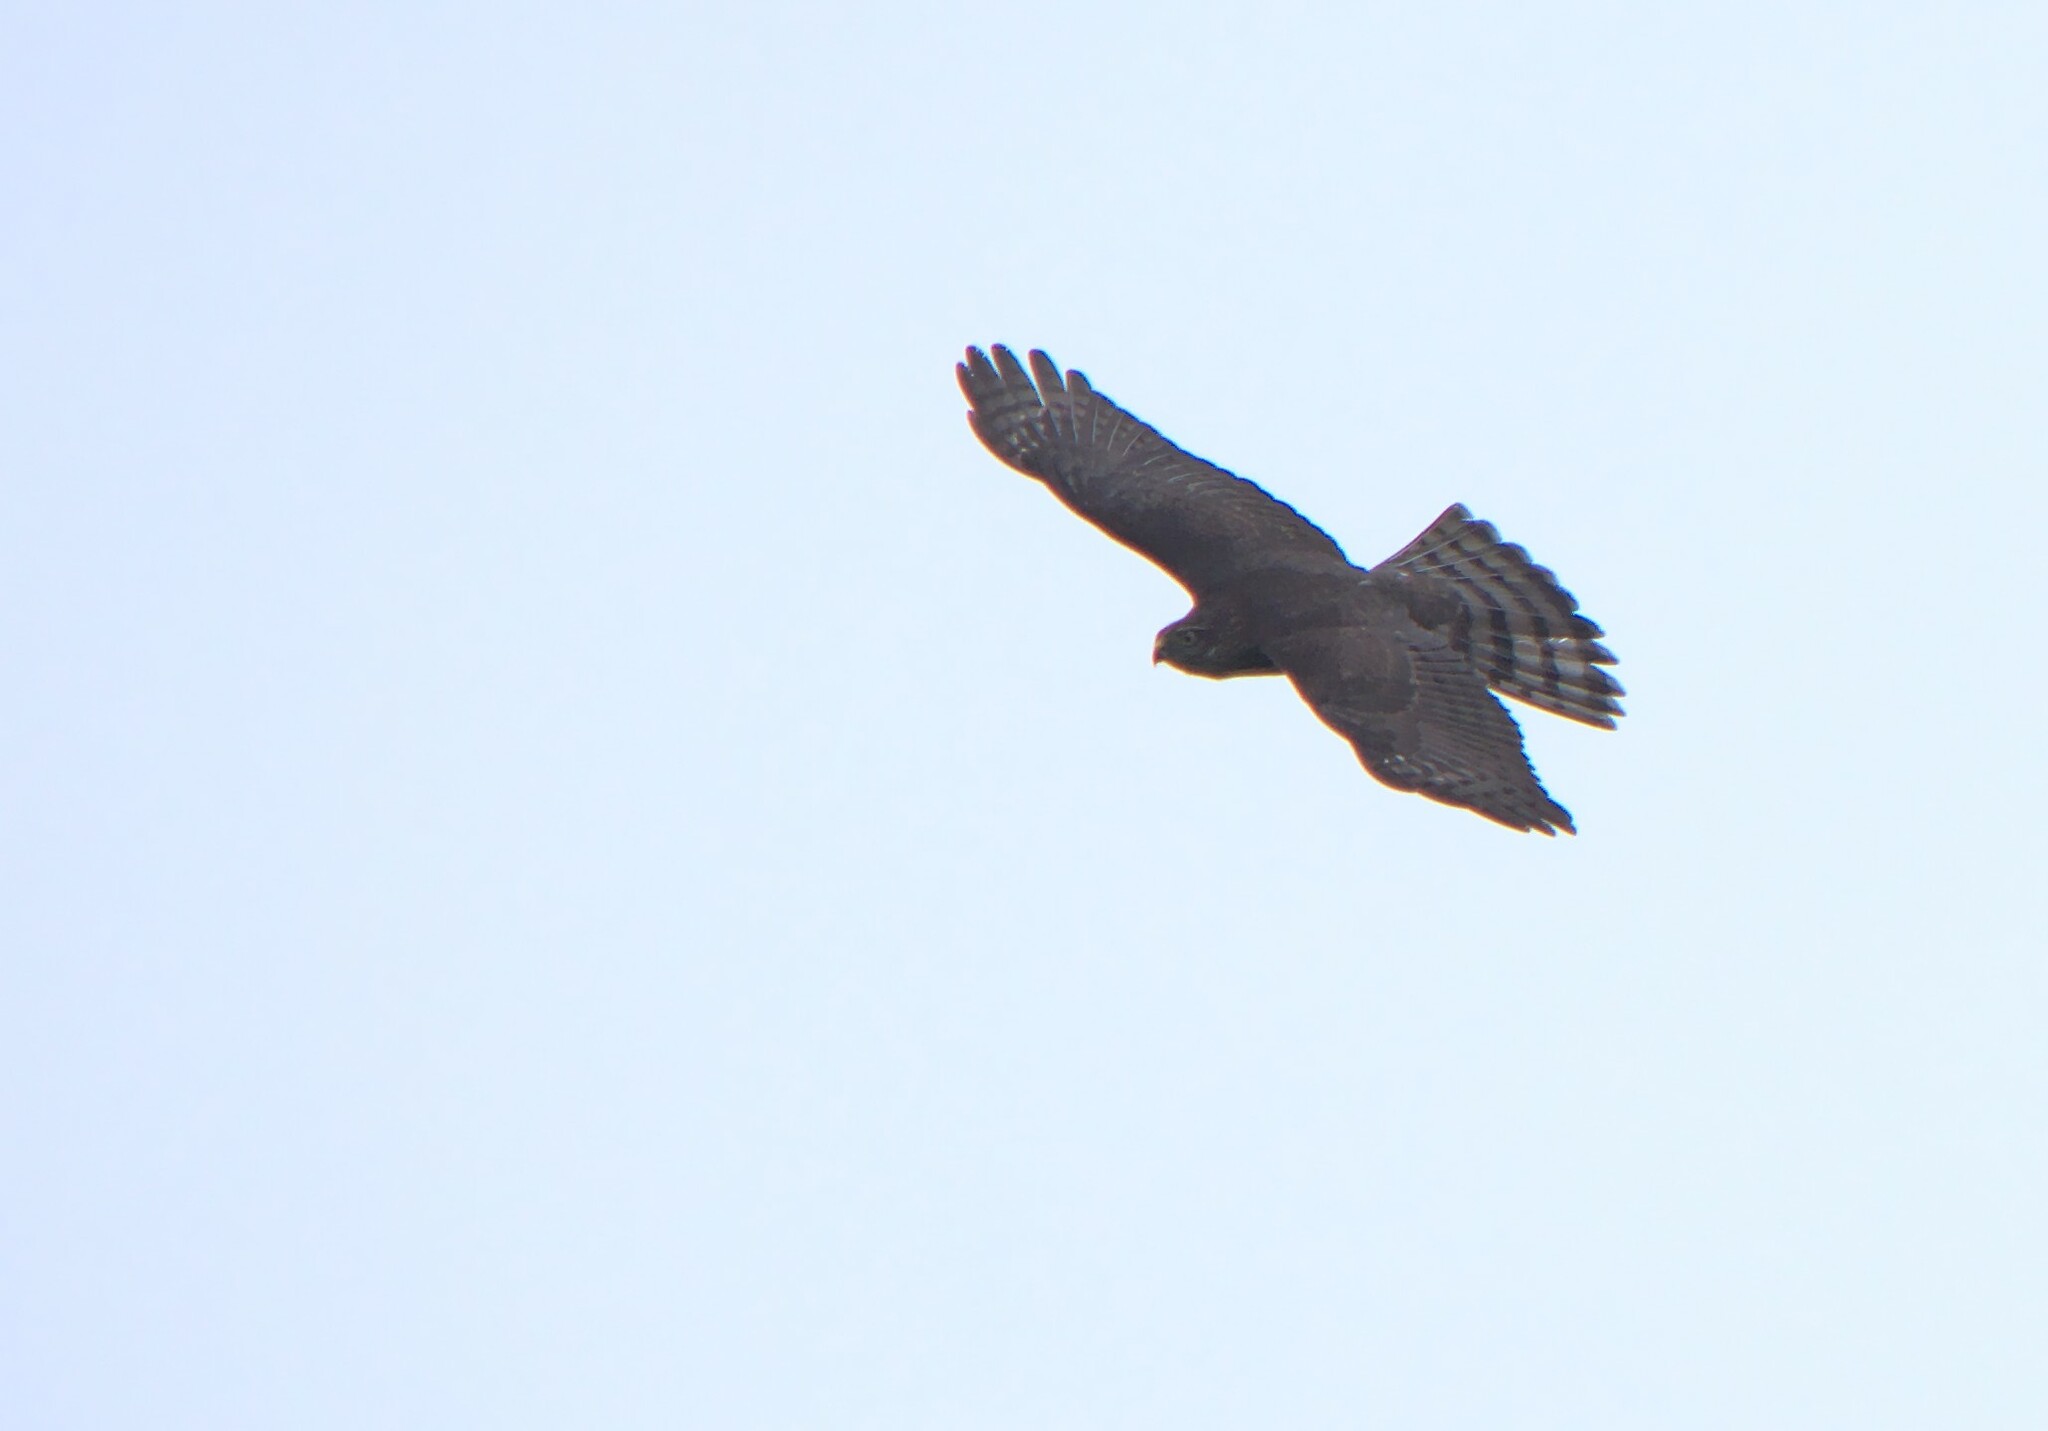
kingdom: Animalia
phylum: Chordata
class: Aves
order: Accipitriformes
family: Accipitridae
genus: Accipiter
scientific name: Accipiter striatus
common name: Sharp-shinned hawk
